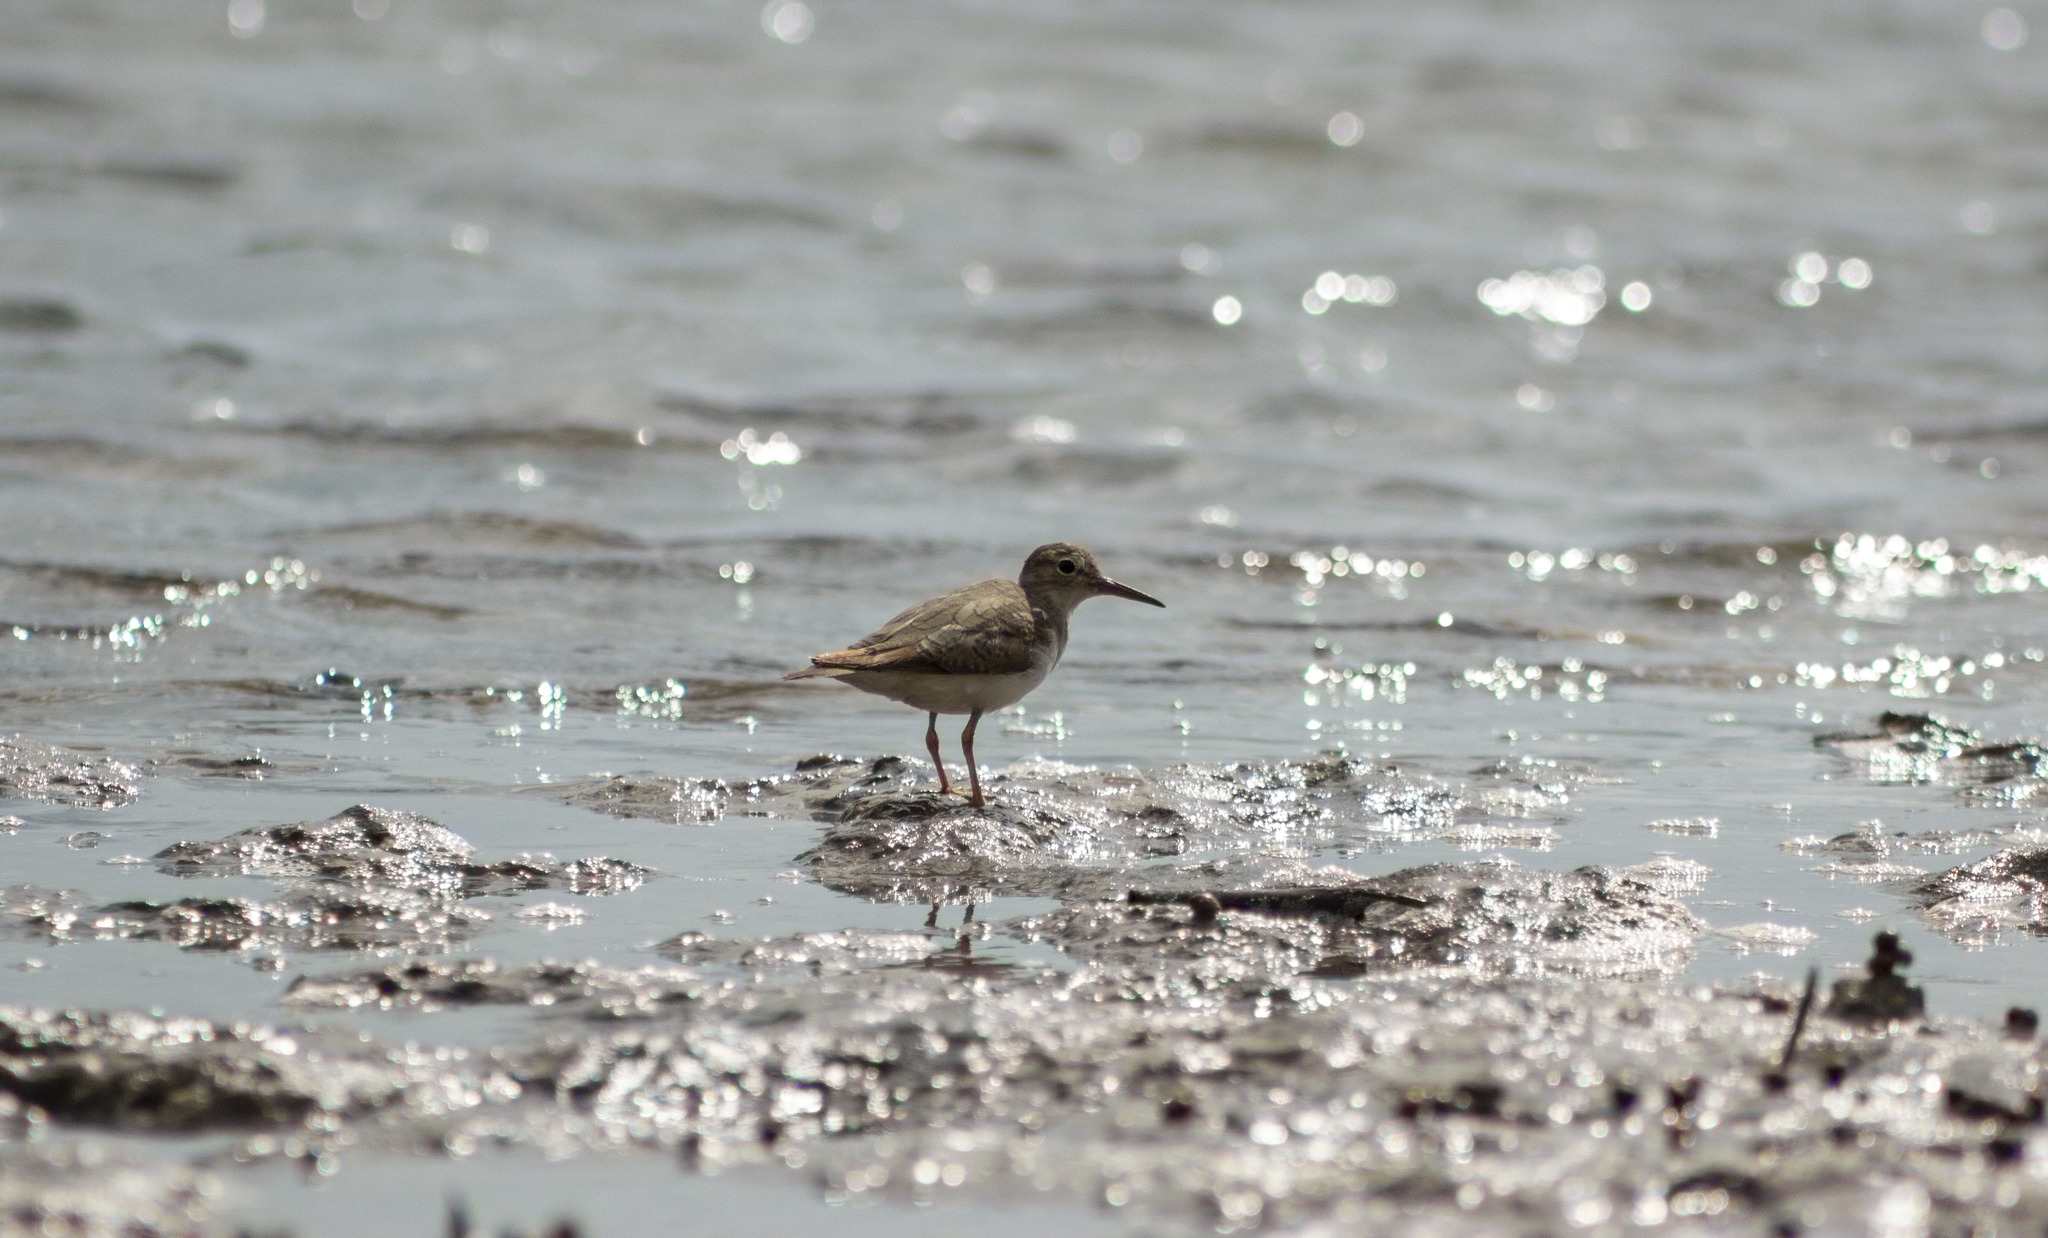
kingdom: Animalia
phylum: Chordata
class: Aves
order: Charadriiformes
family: Scolopacidae
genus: Actitis
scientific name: Actitis macularius
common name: Spotted sandpiper
